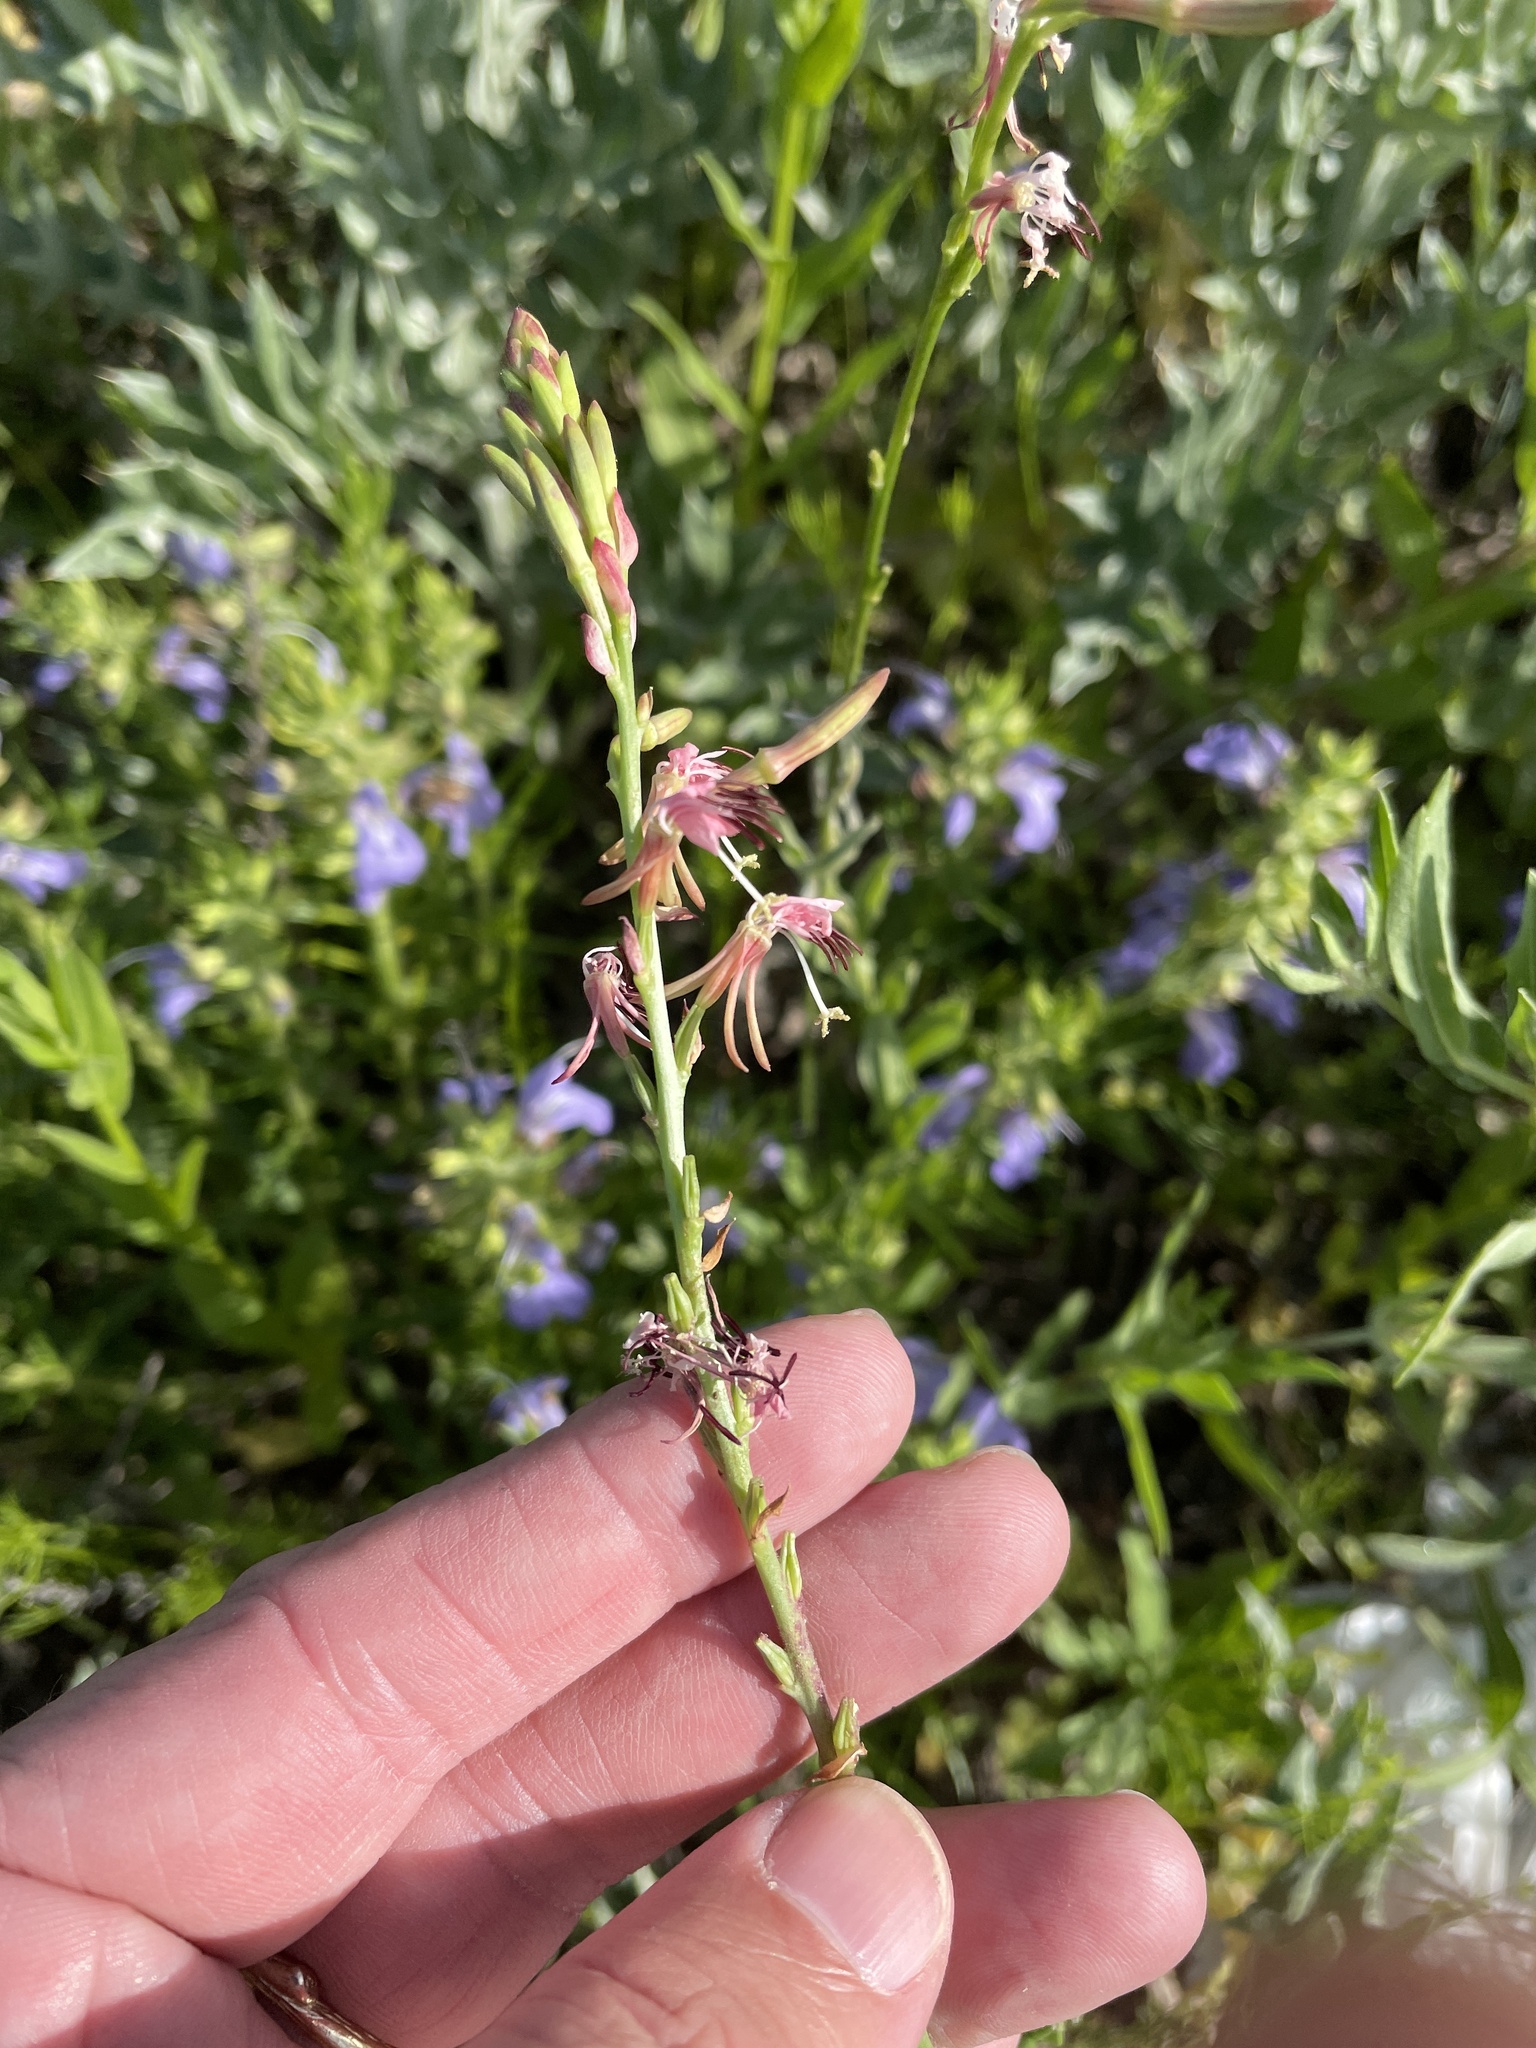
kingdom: Plantae
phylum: Tracheophyta
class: Magnoliopsida
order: Myrtales
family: Onagraceae
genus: Oenothera
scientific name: Oenothera suffulta
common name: Kisses
